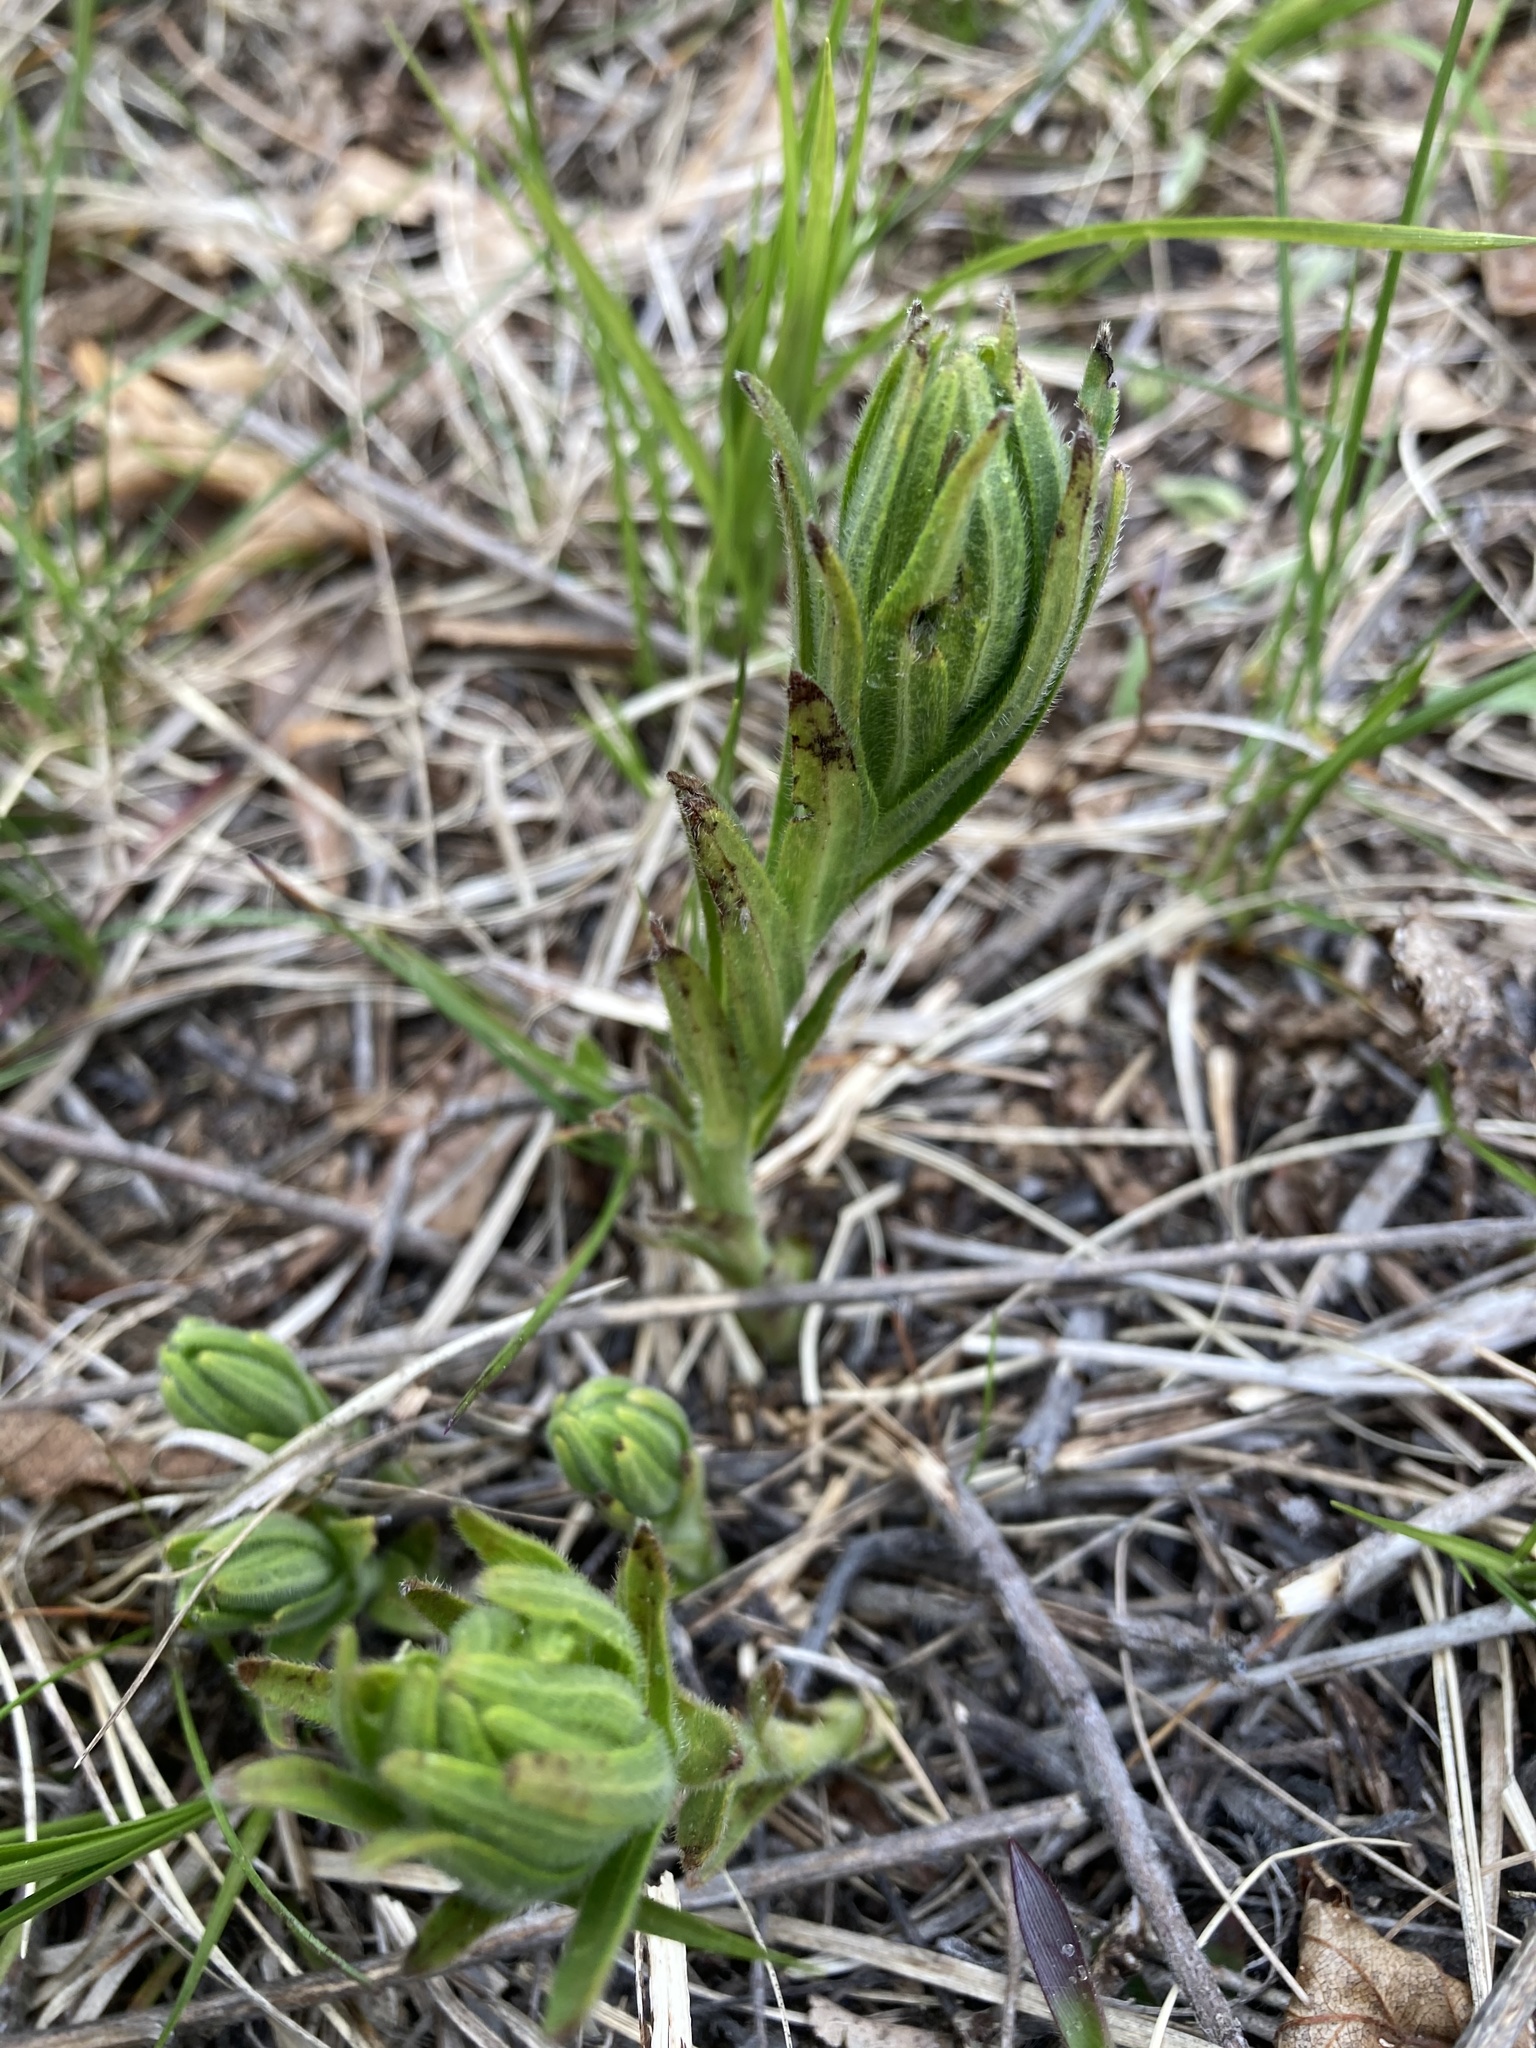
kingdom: Plantae
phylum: Tracheophyta
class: Magnoliopsida
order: Boraginales
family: Boraginaceae
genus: Lithospermum
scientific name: Lithospermum caroliniense
